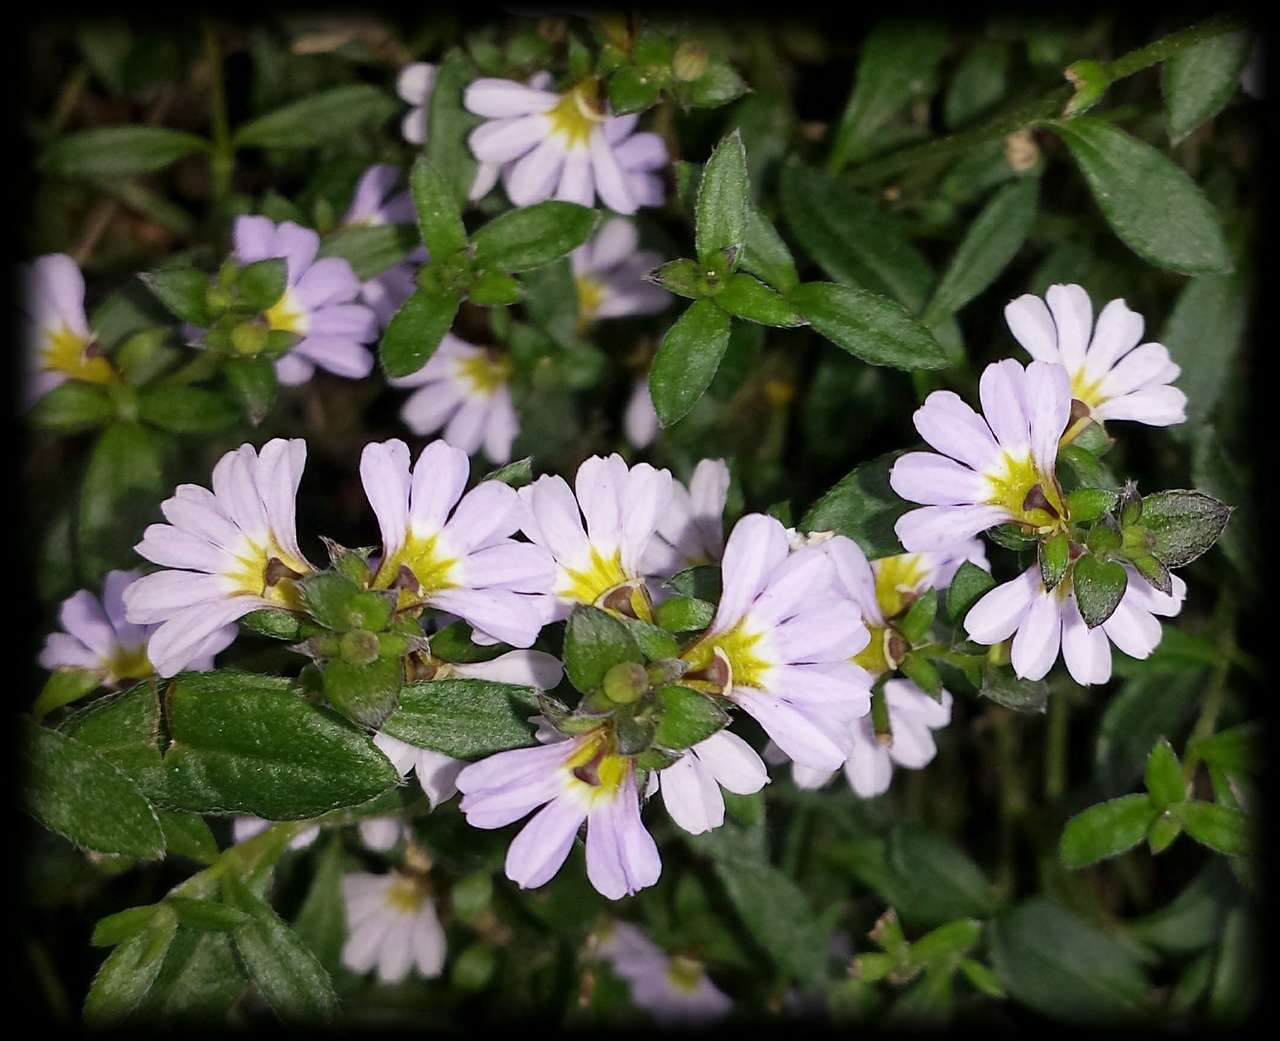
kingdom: Plantae
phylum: Tracheophyta
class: Magnoliopsida
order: Asterales
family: Goodeniaceae
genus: Scaevola
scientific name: Scaevola albida
